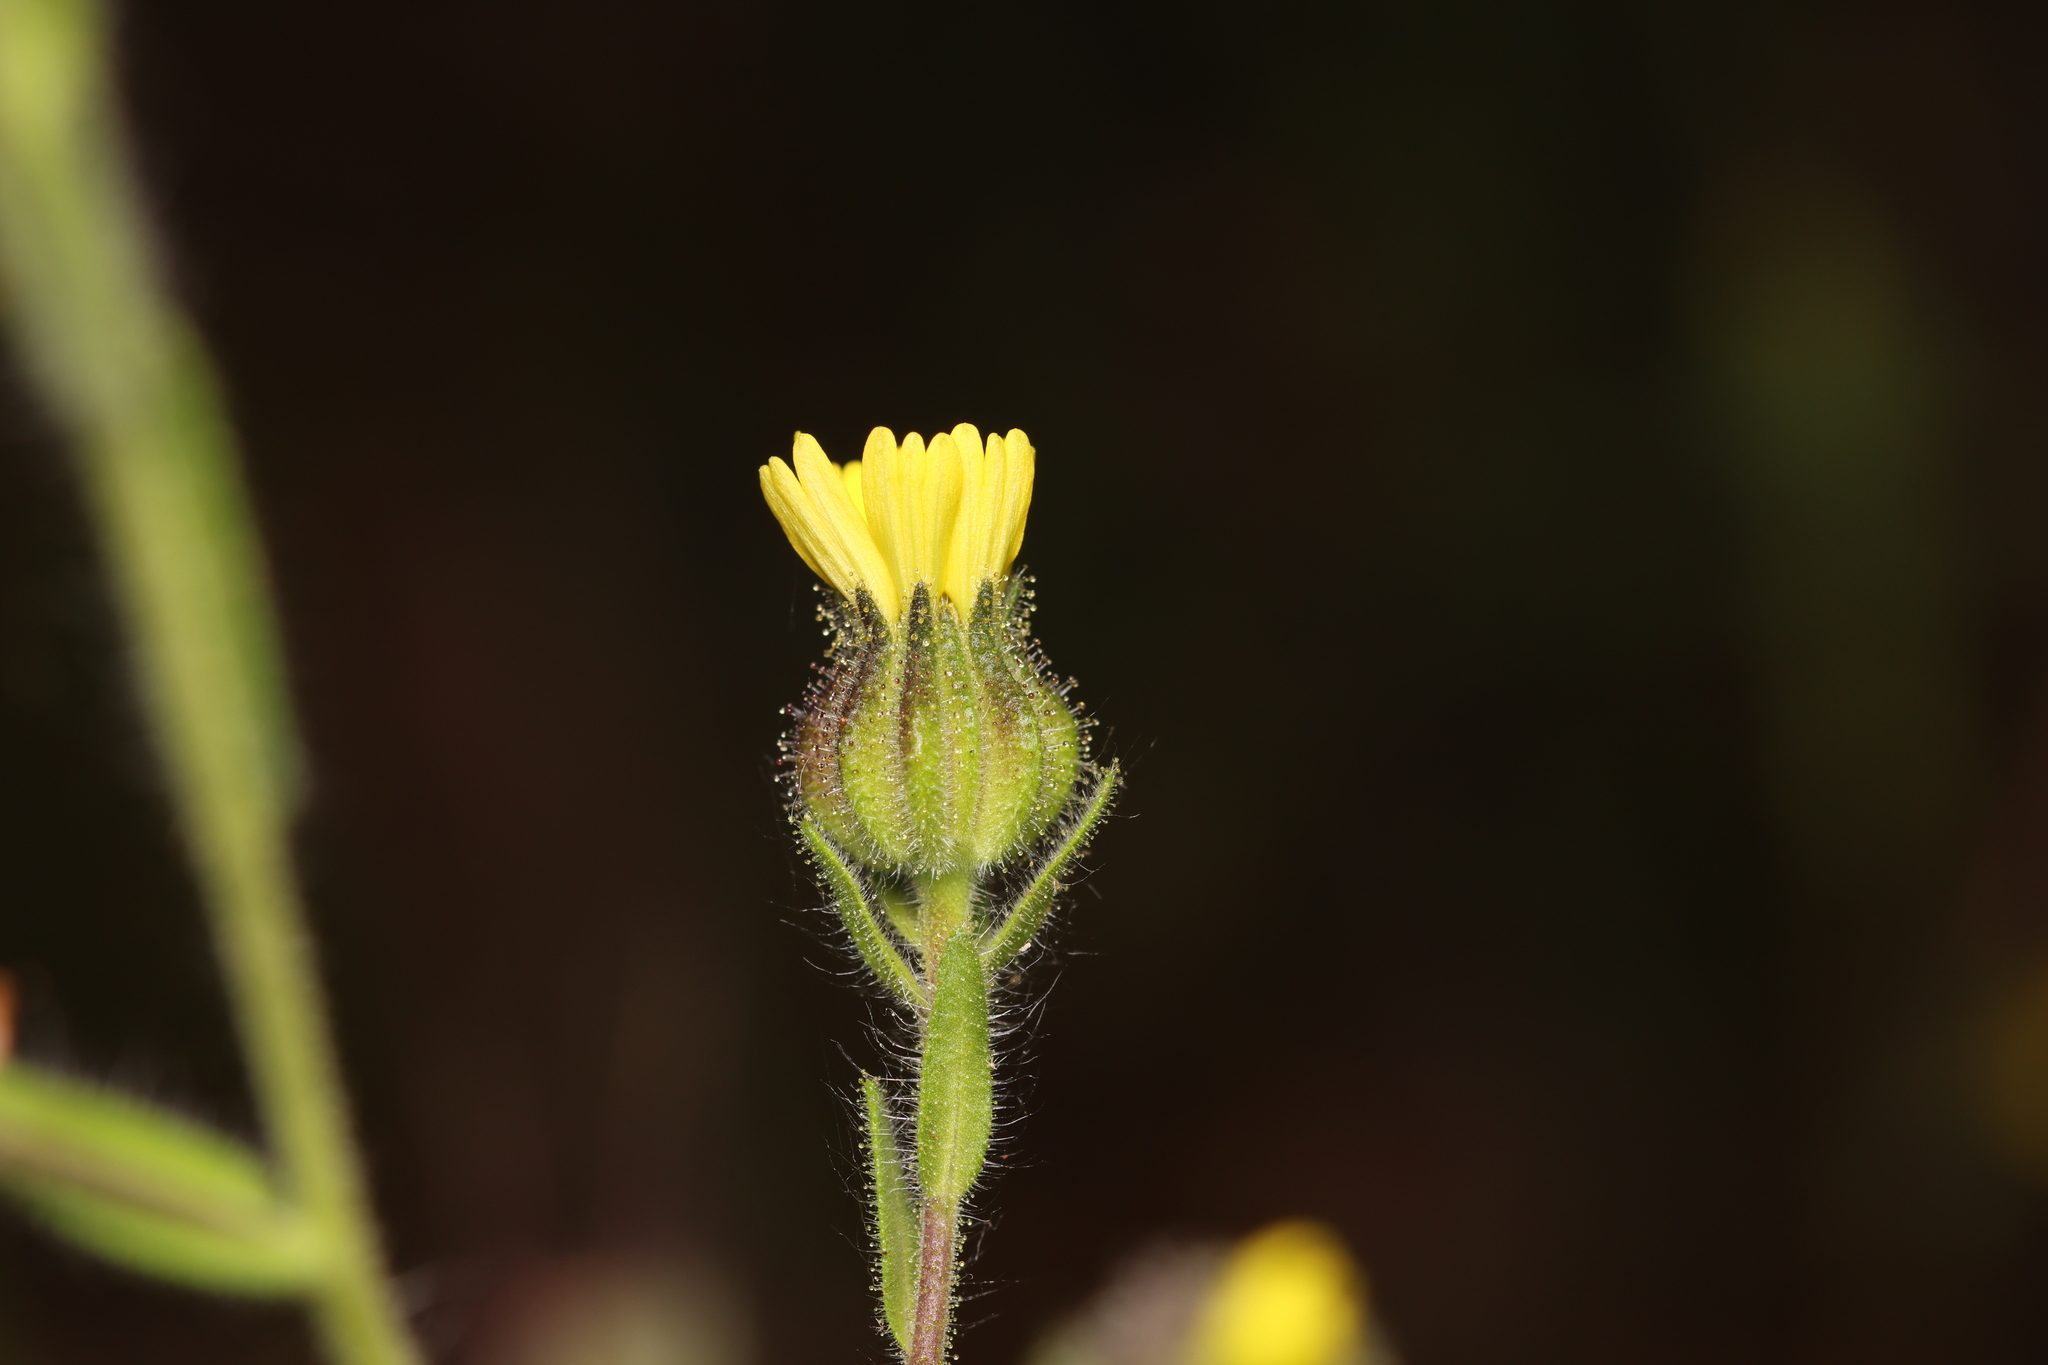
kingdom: Plantae
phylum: Tracheophyta
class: Magnoliopsida
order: Asterales
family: Asteraceae
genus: Madia
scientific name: Madia gracilis
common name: Grassy tarweed
